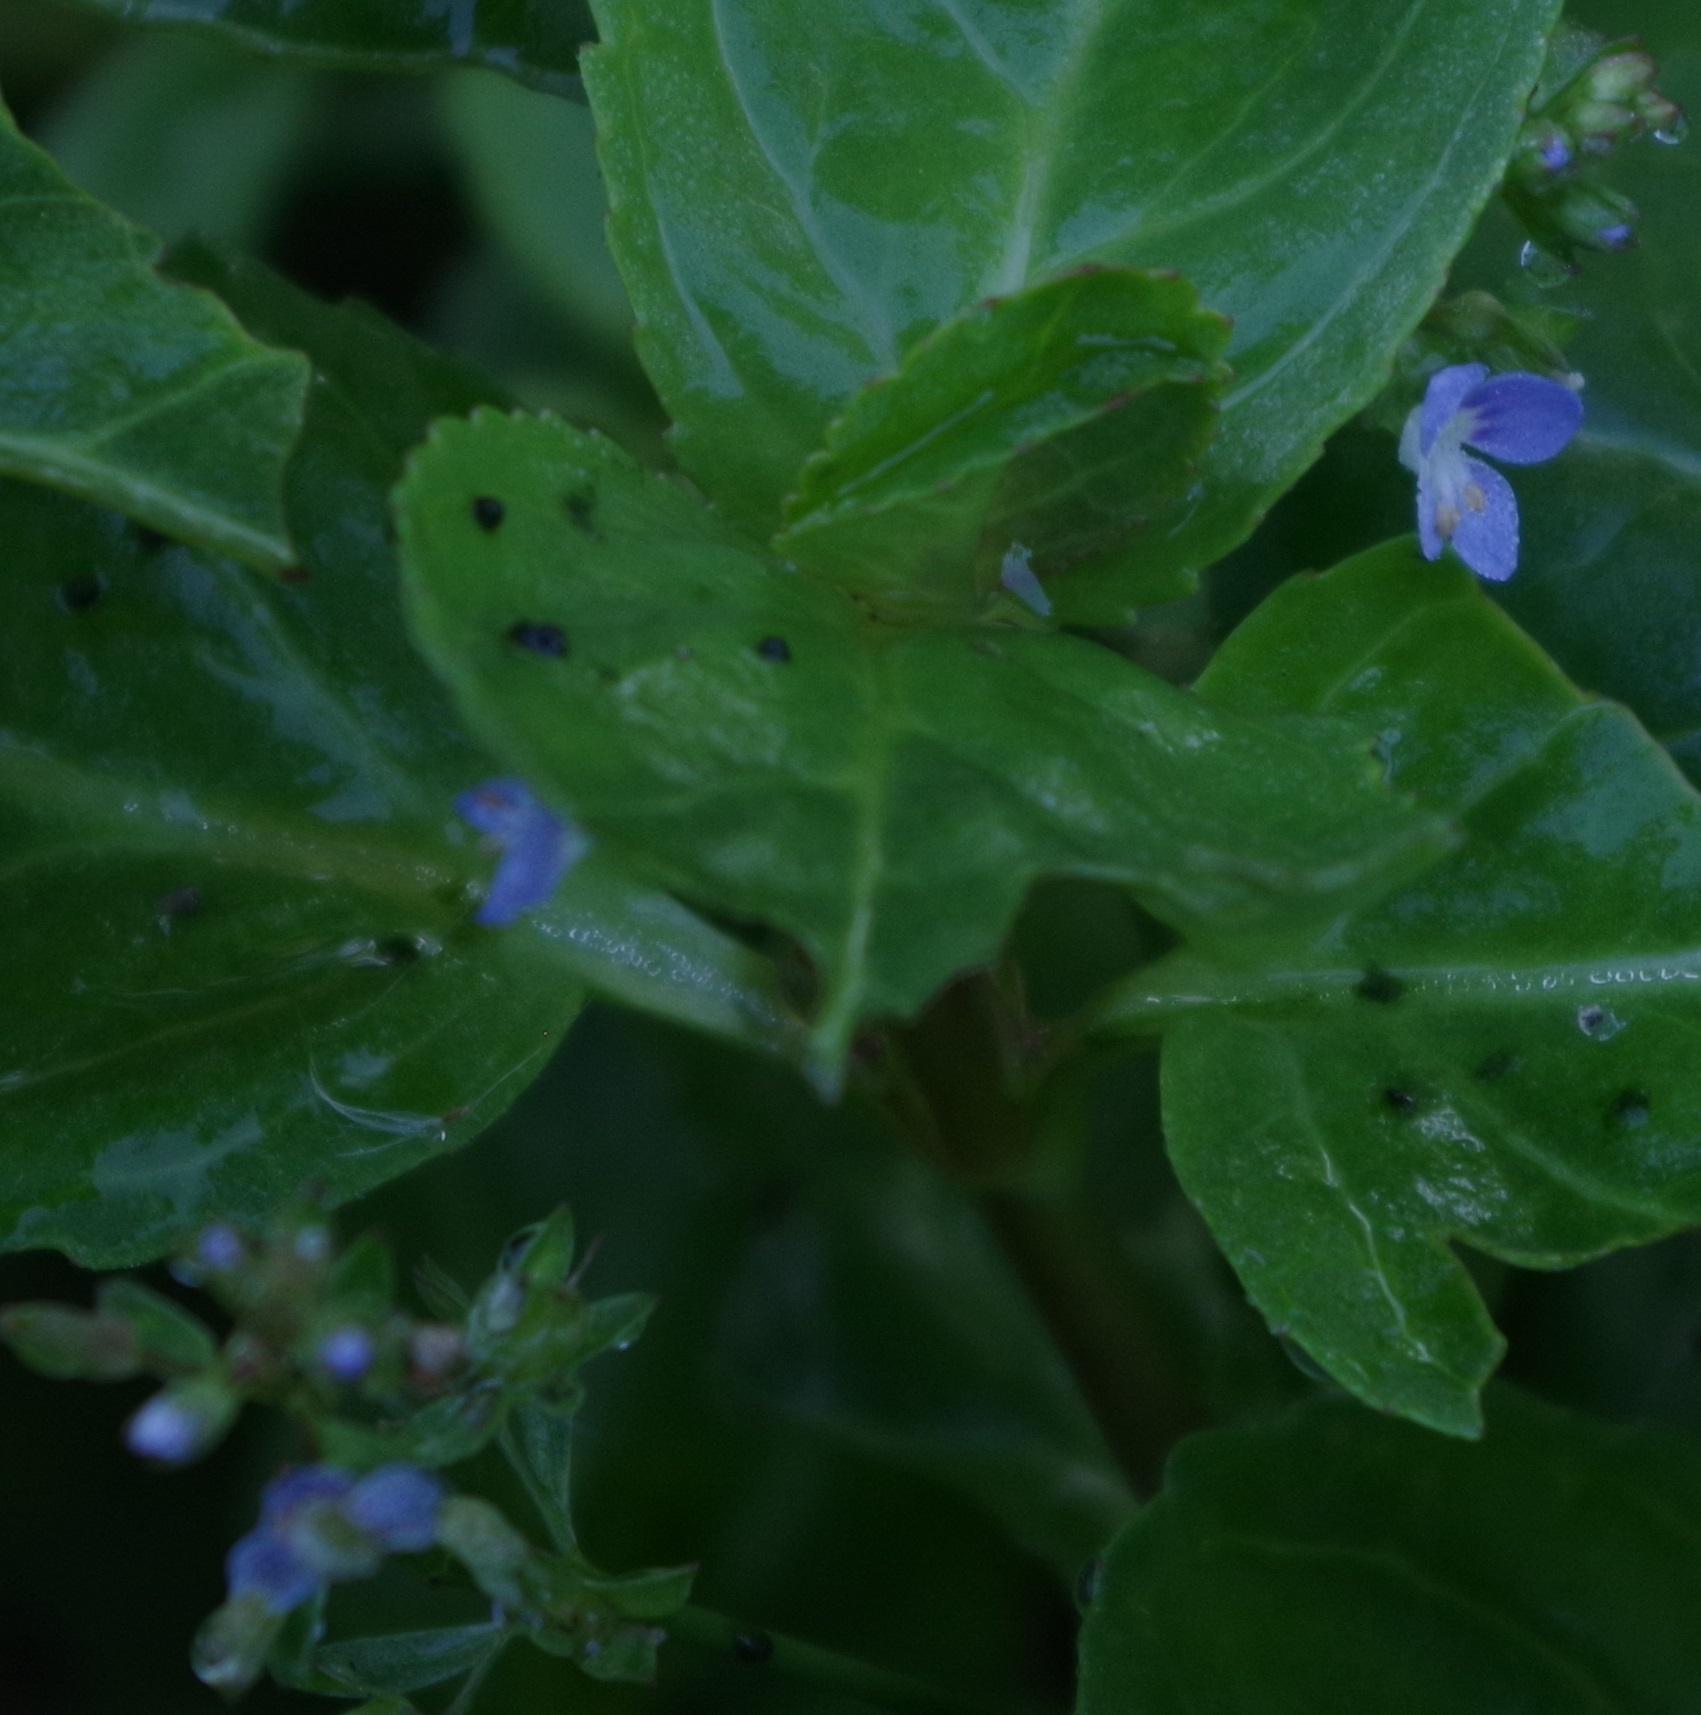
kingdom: Plantae
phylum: Tracheophyta
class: Magnoliopsida
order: Lamiales
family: Plantaginaceae
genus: Veronica
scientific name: Veronica beccabunga
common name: Brooklime
